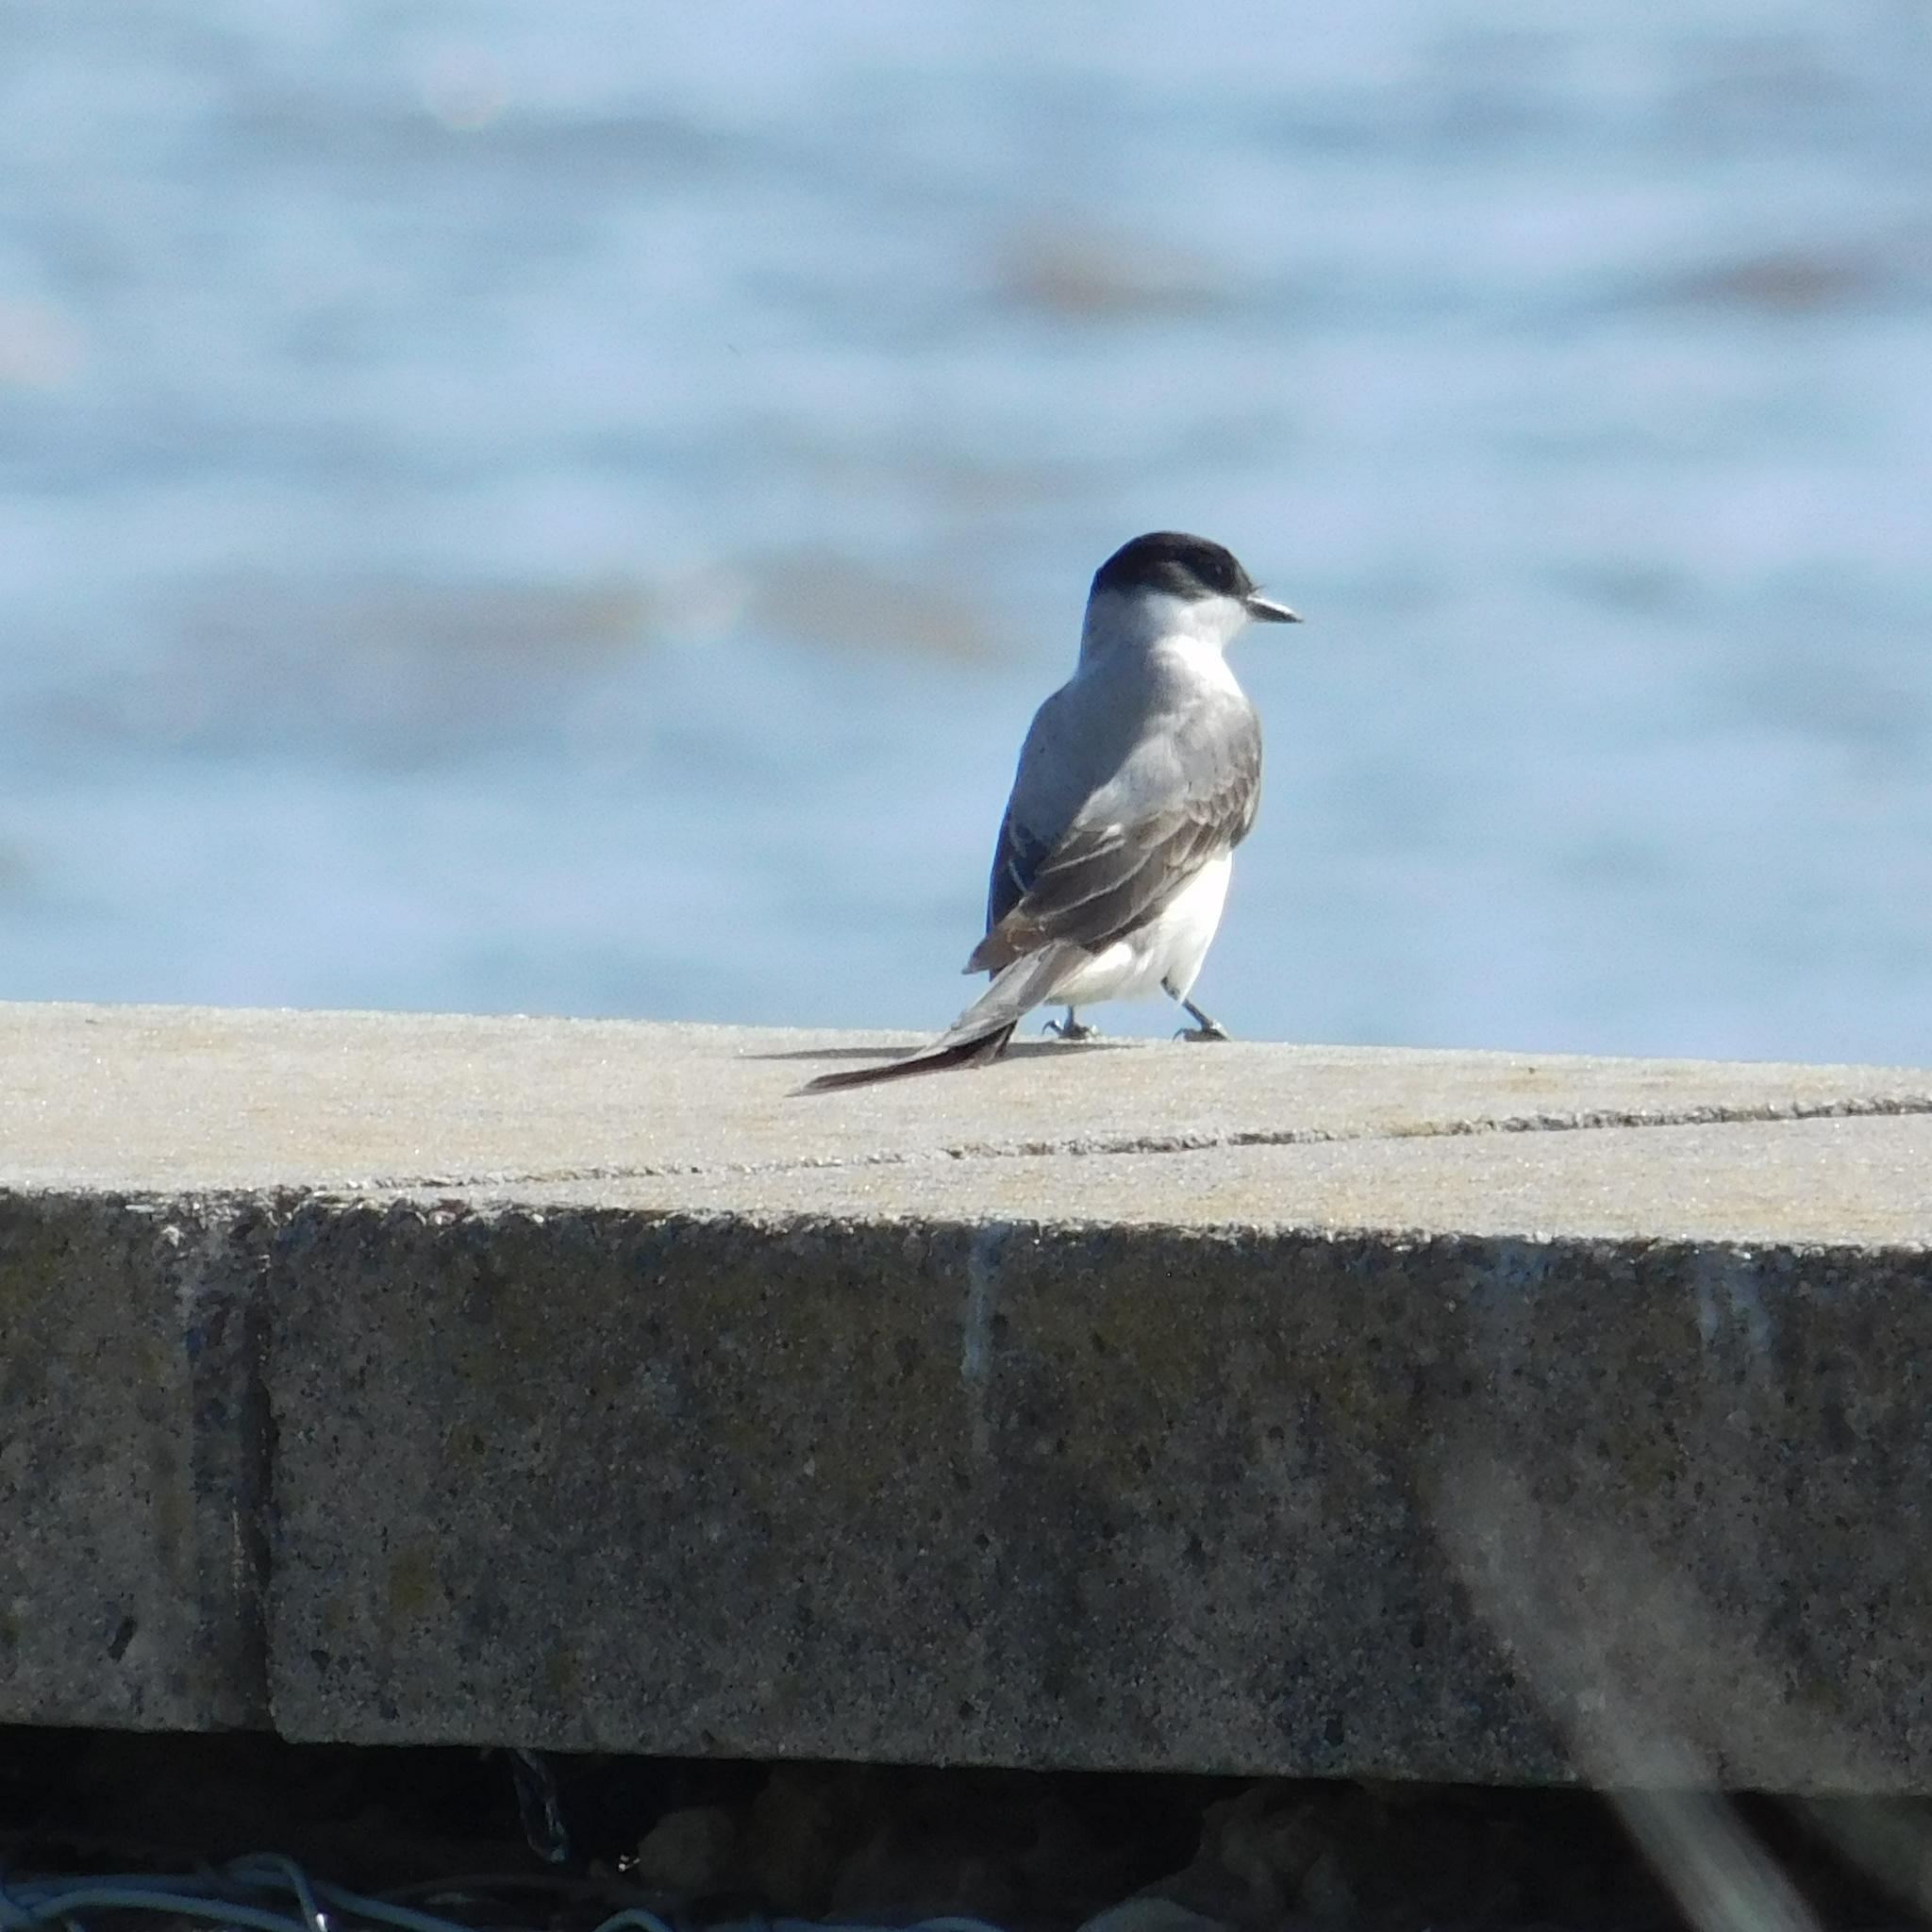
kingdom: Animalia
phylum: Chordata
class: Aves
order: Passeriformes
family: Tyrannidae
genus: Tyrannus
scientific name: Tyrannus savana
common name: Fork-tailed flycatcher
